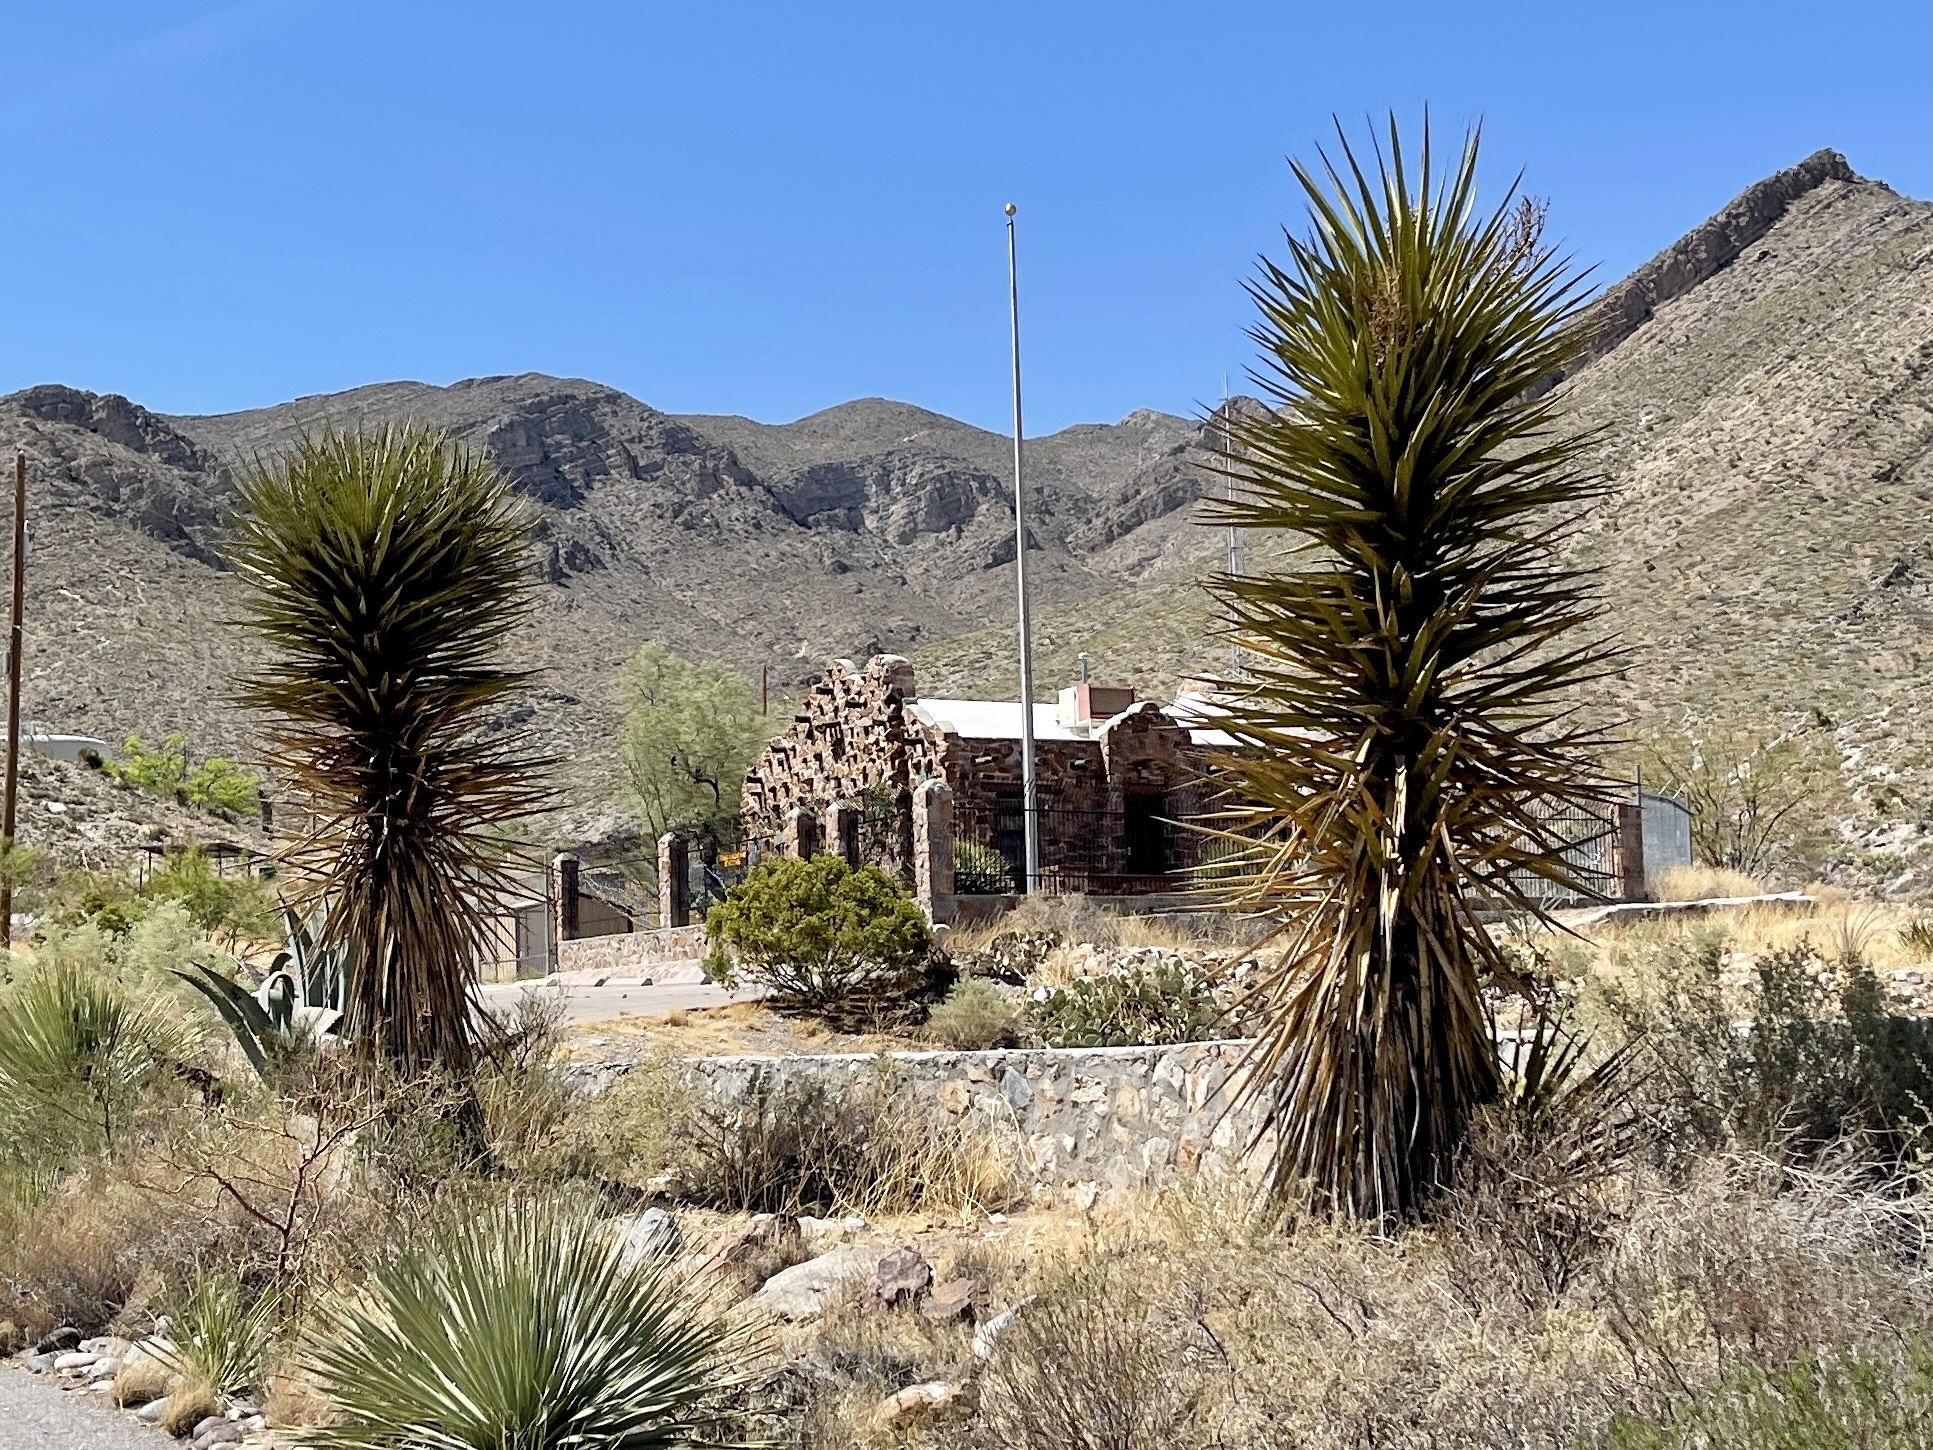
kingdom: Plantae
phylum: Tracheophyta
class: Liliopsida
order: Asparagales
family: Asparagaceae
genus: Yucca
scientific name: Yucca treculiana
